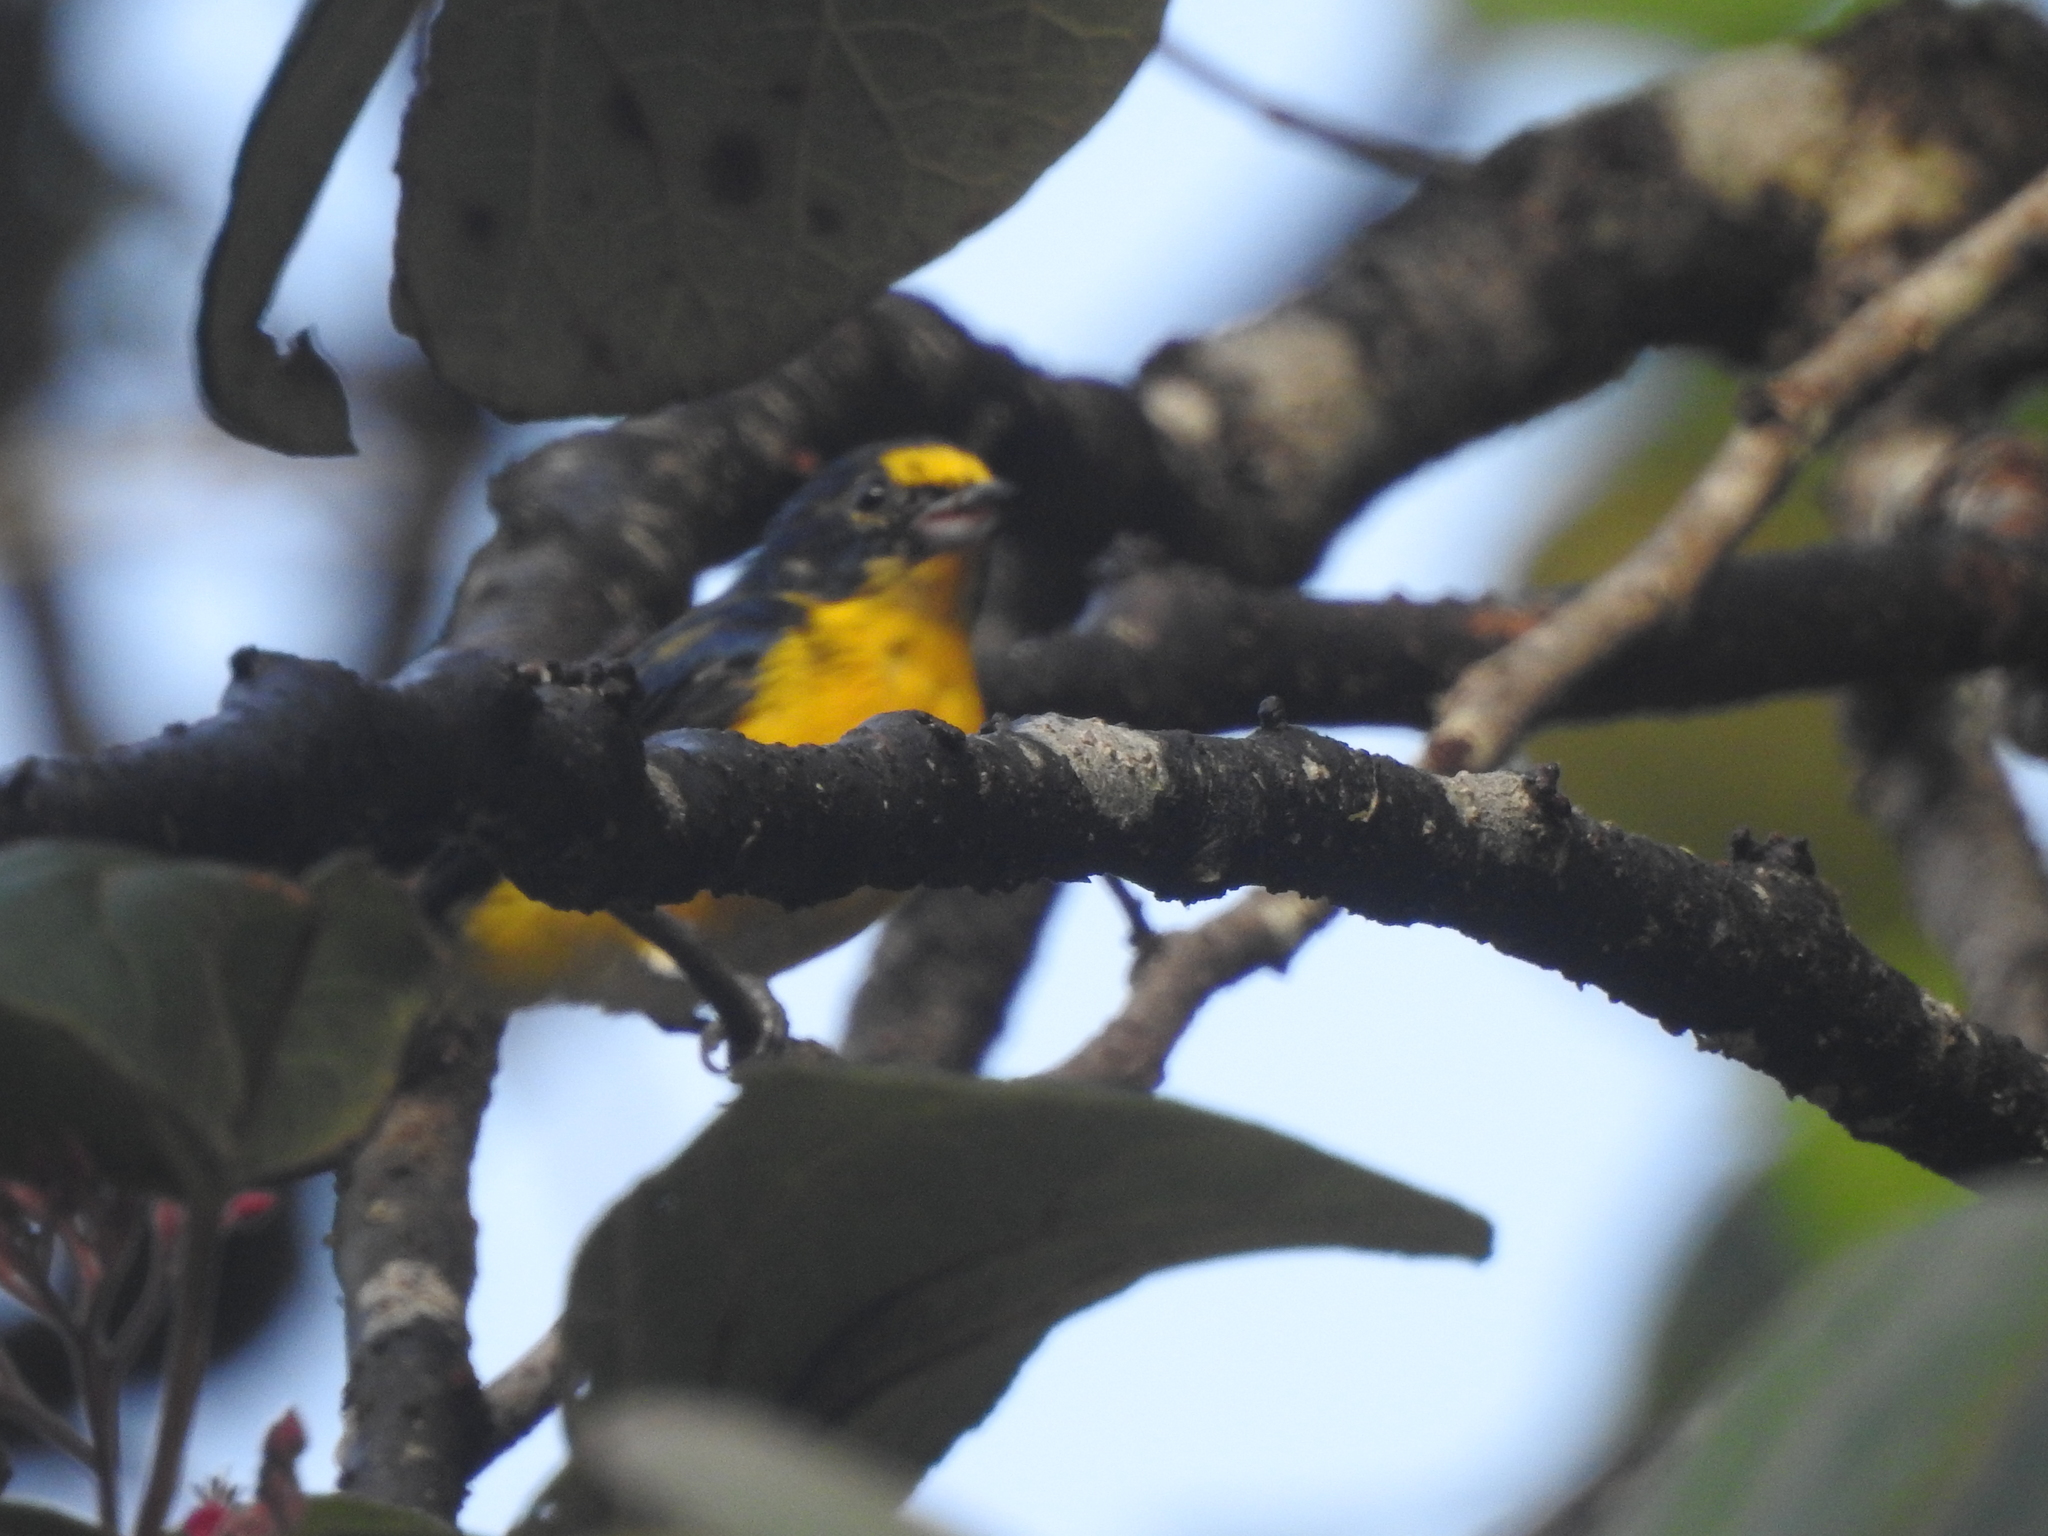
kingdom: Animalia
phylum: Chordata
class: Aves
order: Passeriformes
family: Fringillidae
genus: Euphonia
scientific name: Euphonia hirundinacea
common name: Yellow-throated euphonia
